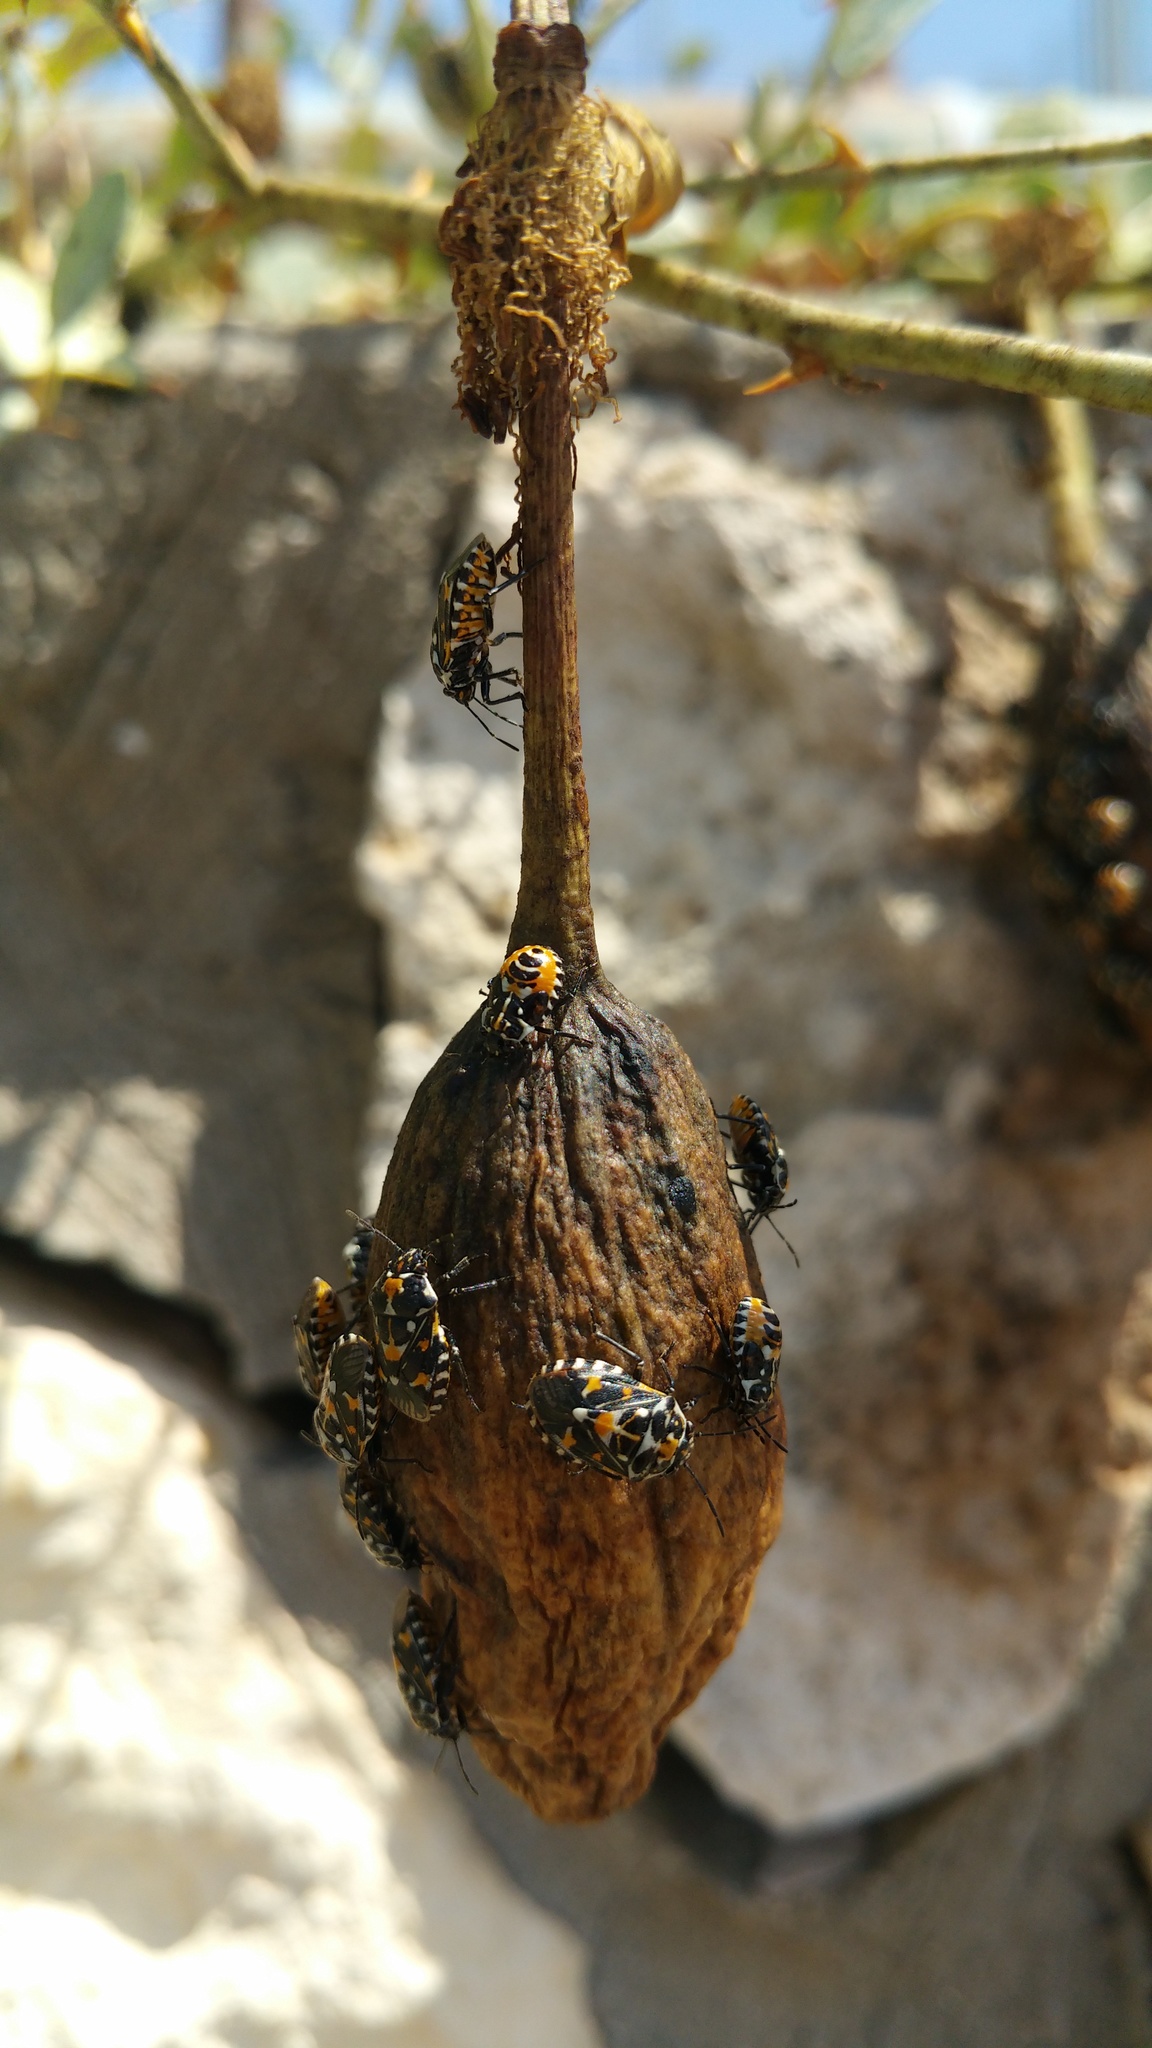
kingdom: Animalia
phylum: Arthropoda
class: Insecta
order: Hemiptera
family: Pentatomidae
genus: Stenozygum
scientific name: Stenozygum coloratum
